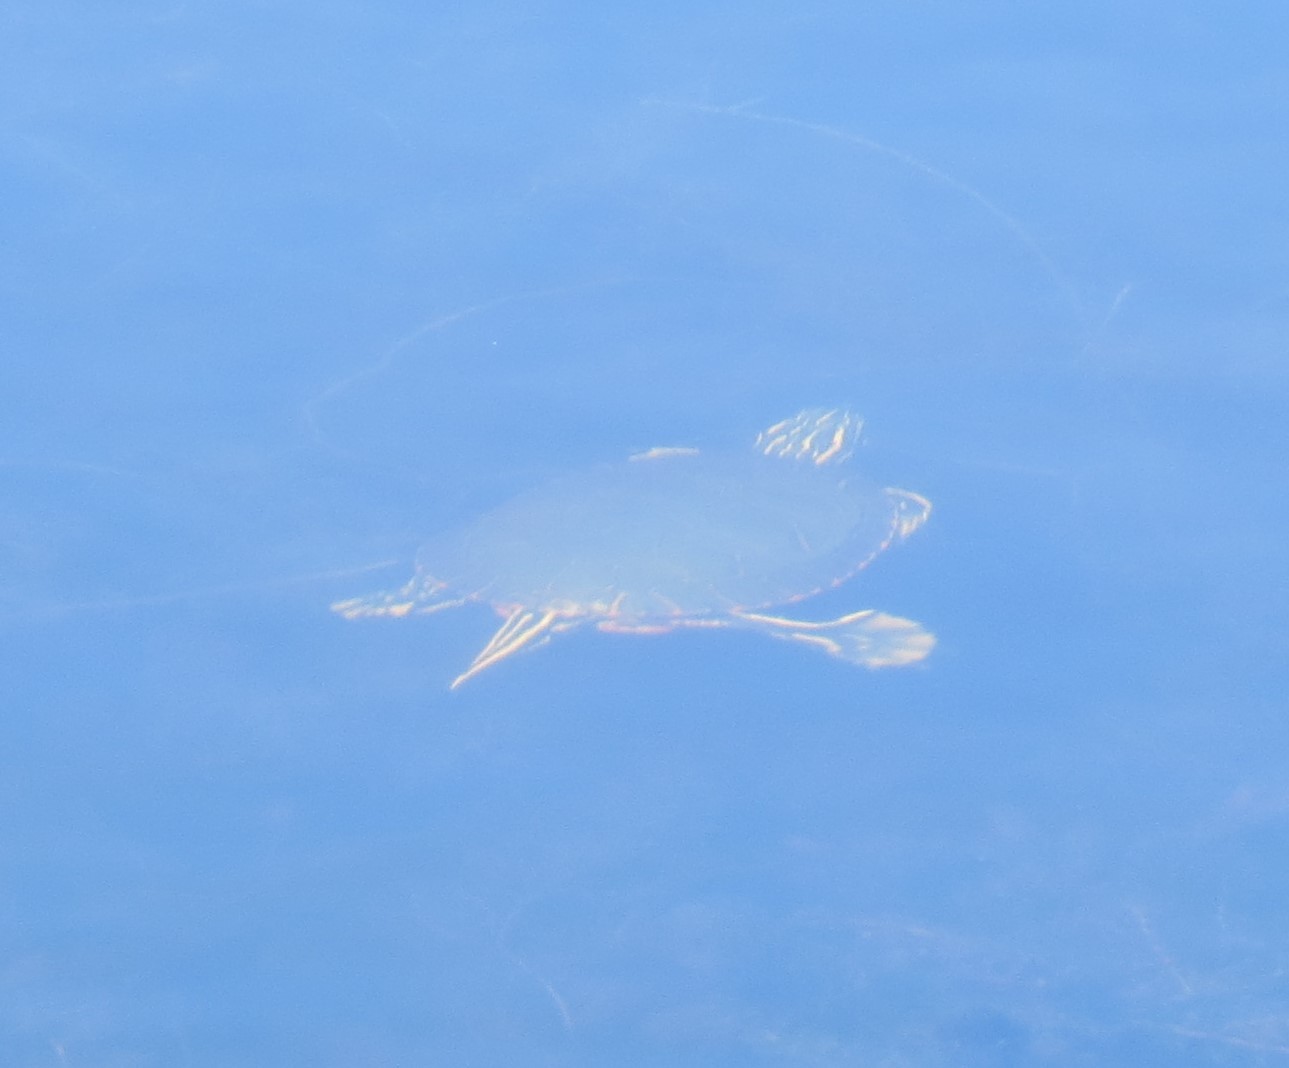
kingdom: Animalia
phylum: Chordata
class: Testudines
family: Emydidae
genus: Chrysemys
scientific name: Chrysemys picta
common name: Painted turtle
